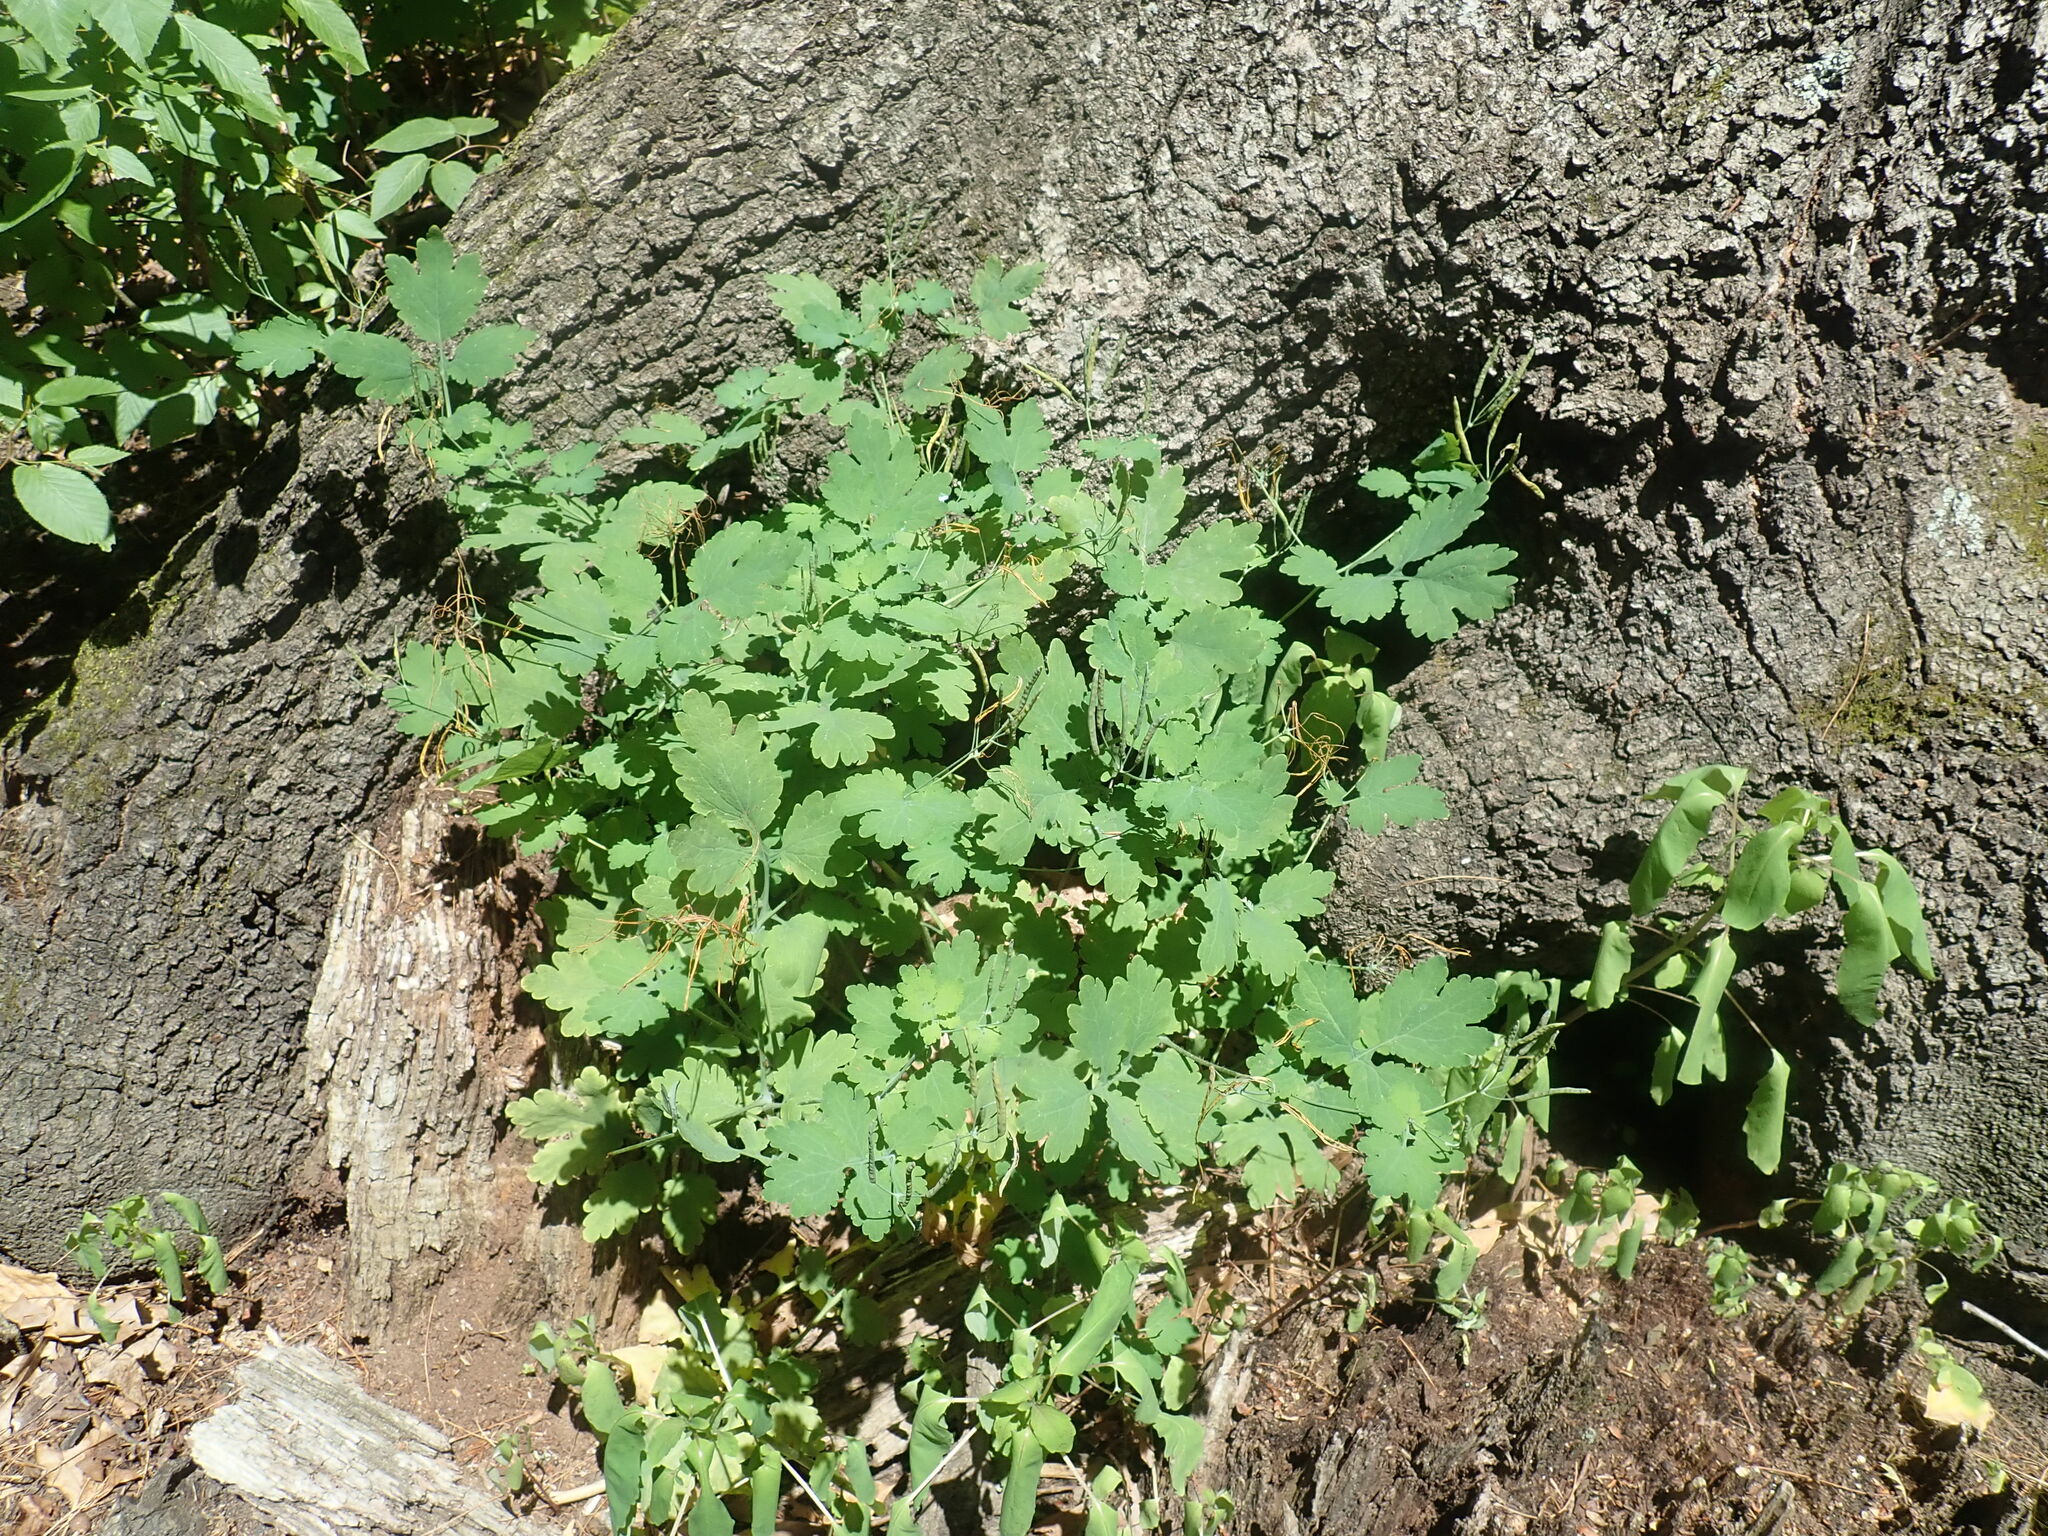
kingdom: Plantae
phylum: Tracheophyta
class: Magnoliopsida
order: Ranunculales
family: Papaveraceae
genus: Chelidonium
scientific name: Chelidonium majus
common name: Greater celandine
